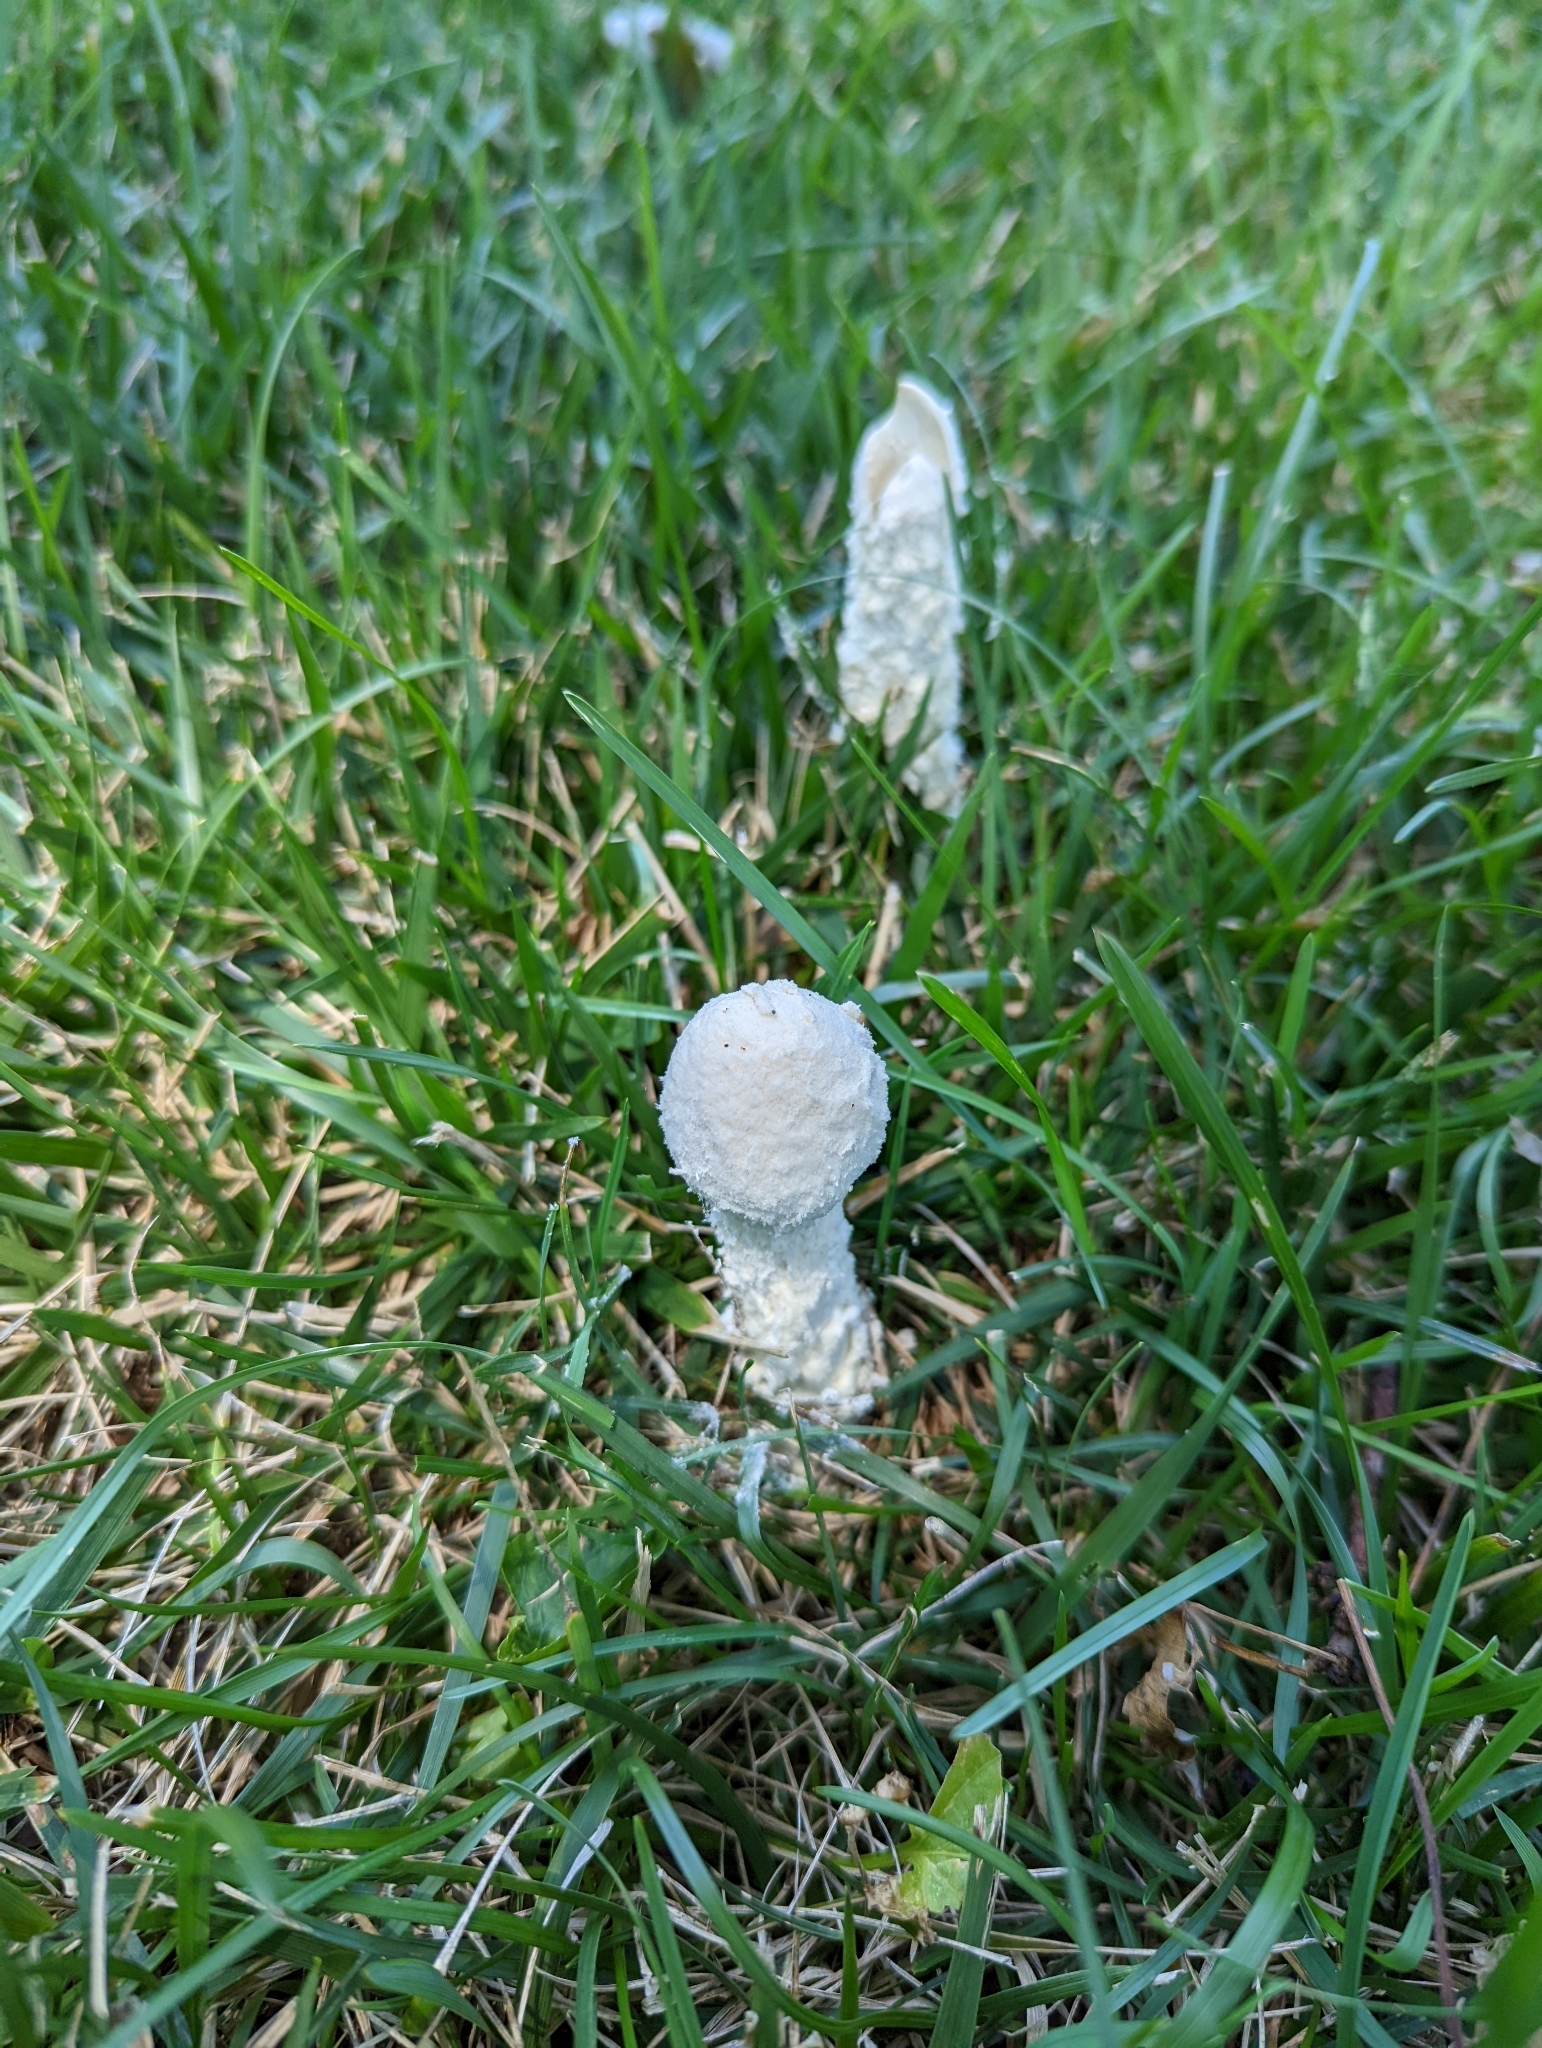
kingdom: Fungi
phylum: Basidiomycota
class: Agaricomycetes
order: Agaricales
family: Amanitaceae
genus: Amanita
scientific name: Amanita thiersii
